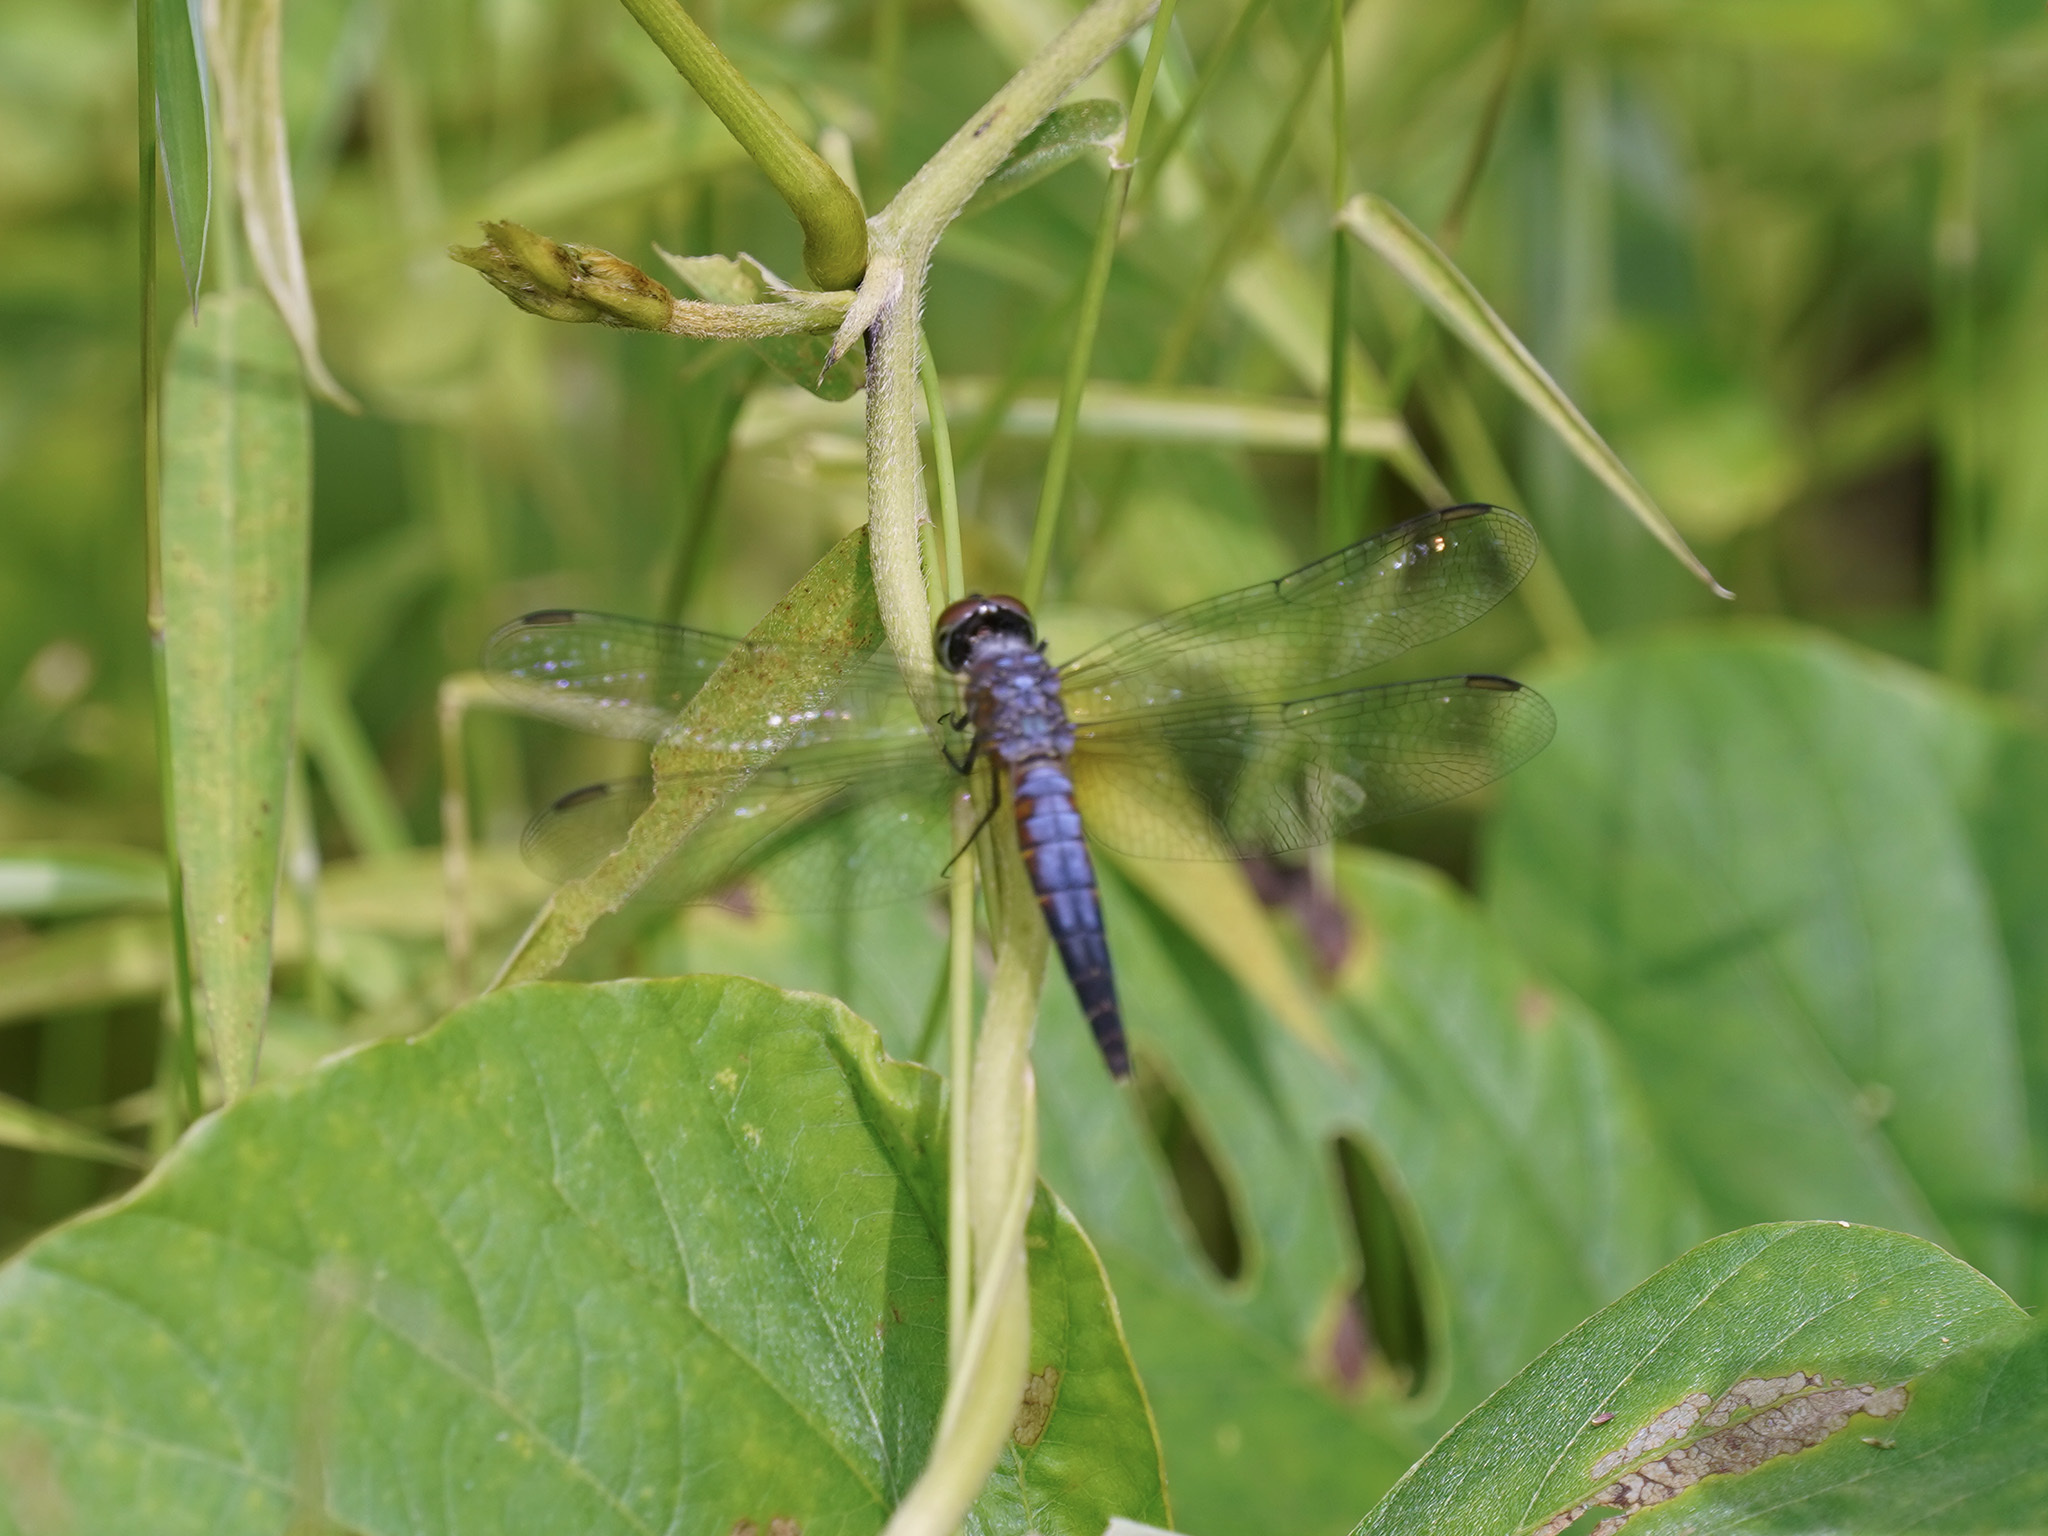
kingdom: Animalia
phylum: Arthropoda
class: Insecta
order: Odonata
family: Libellulidae
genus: Orchithemis
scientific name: Orchithemis pulcherrima
